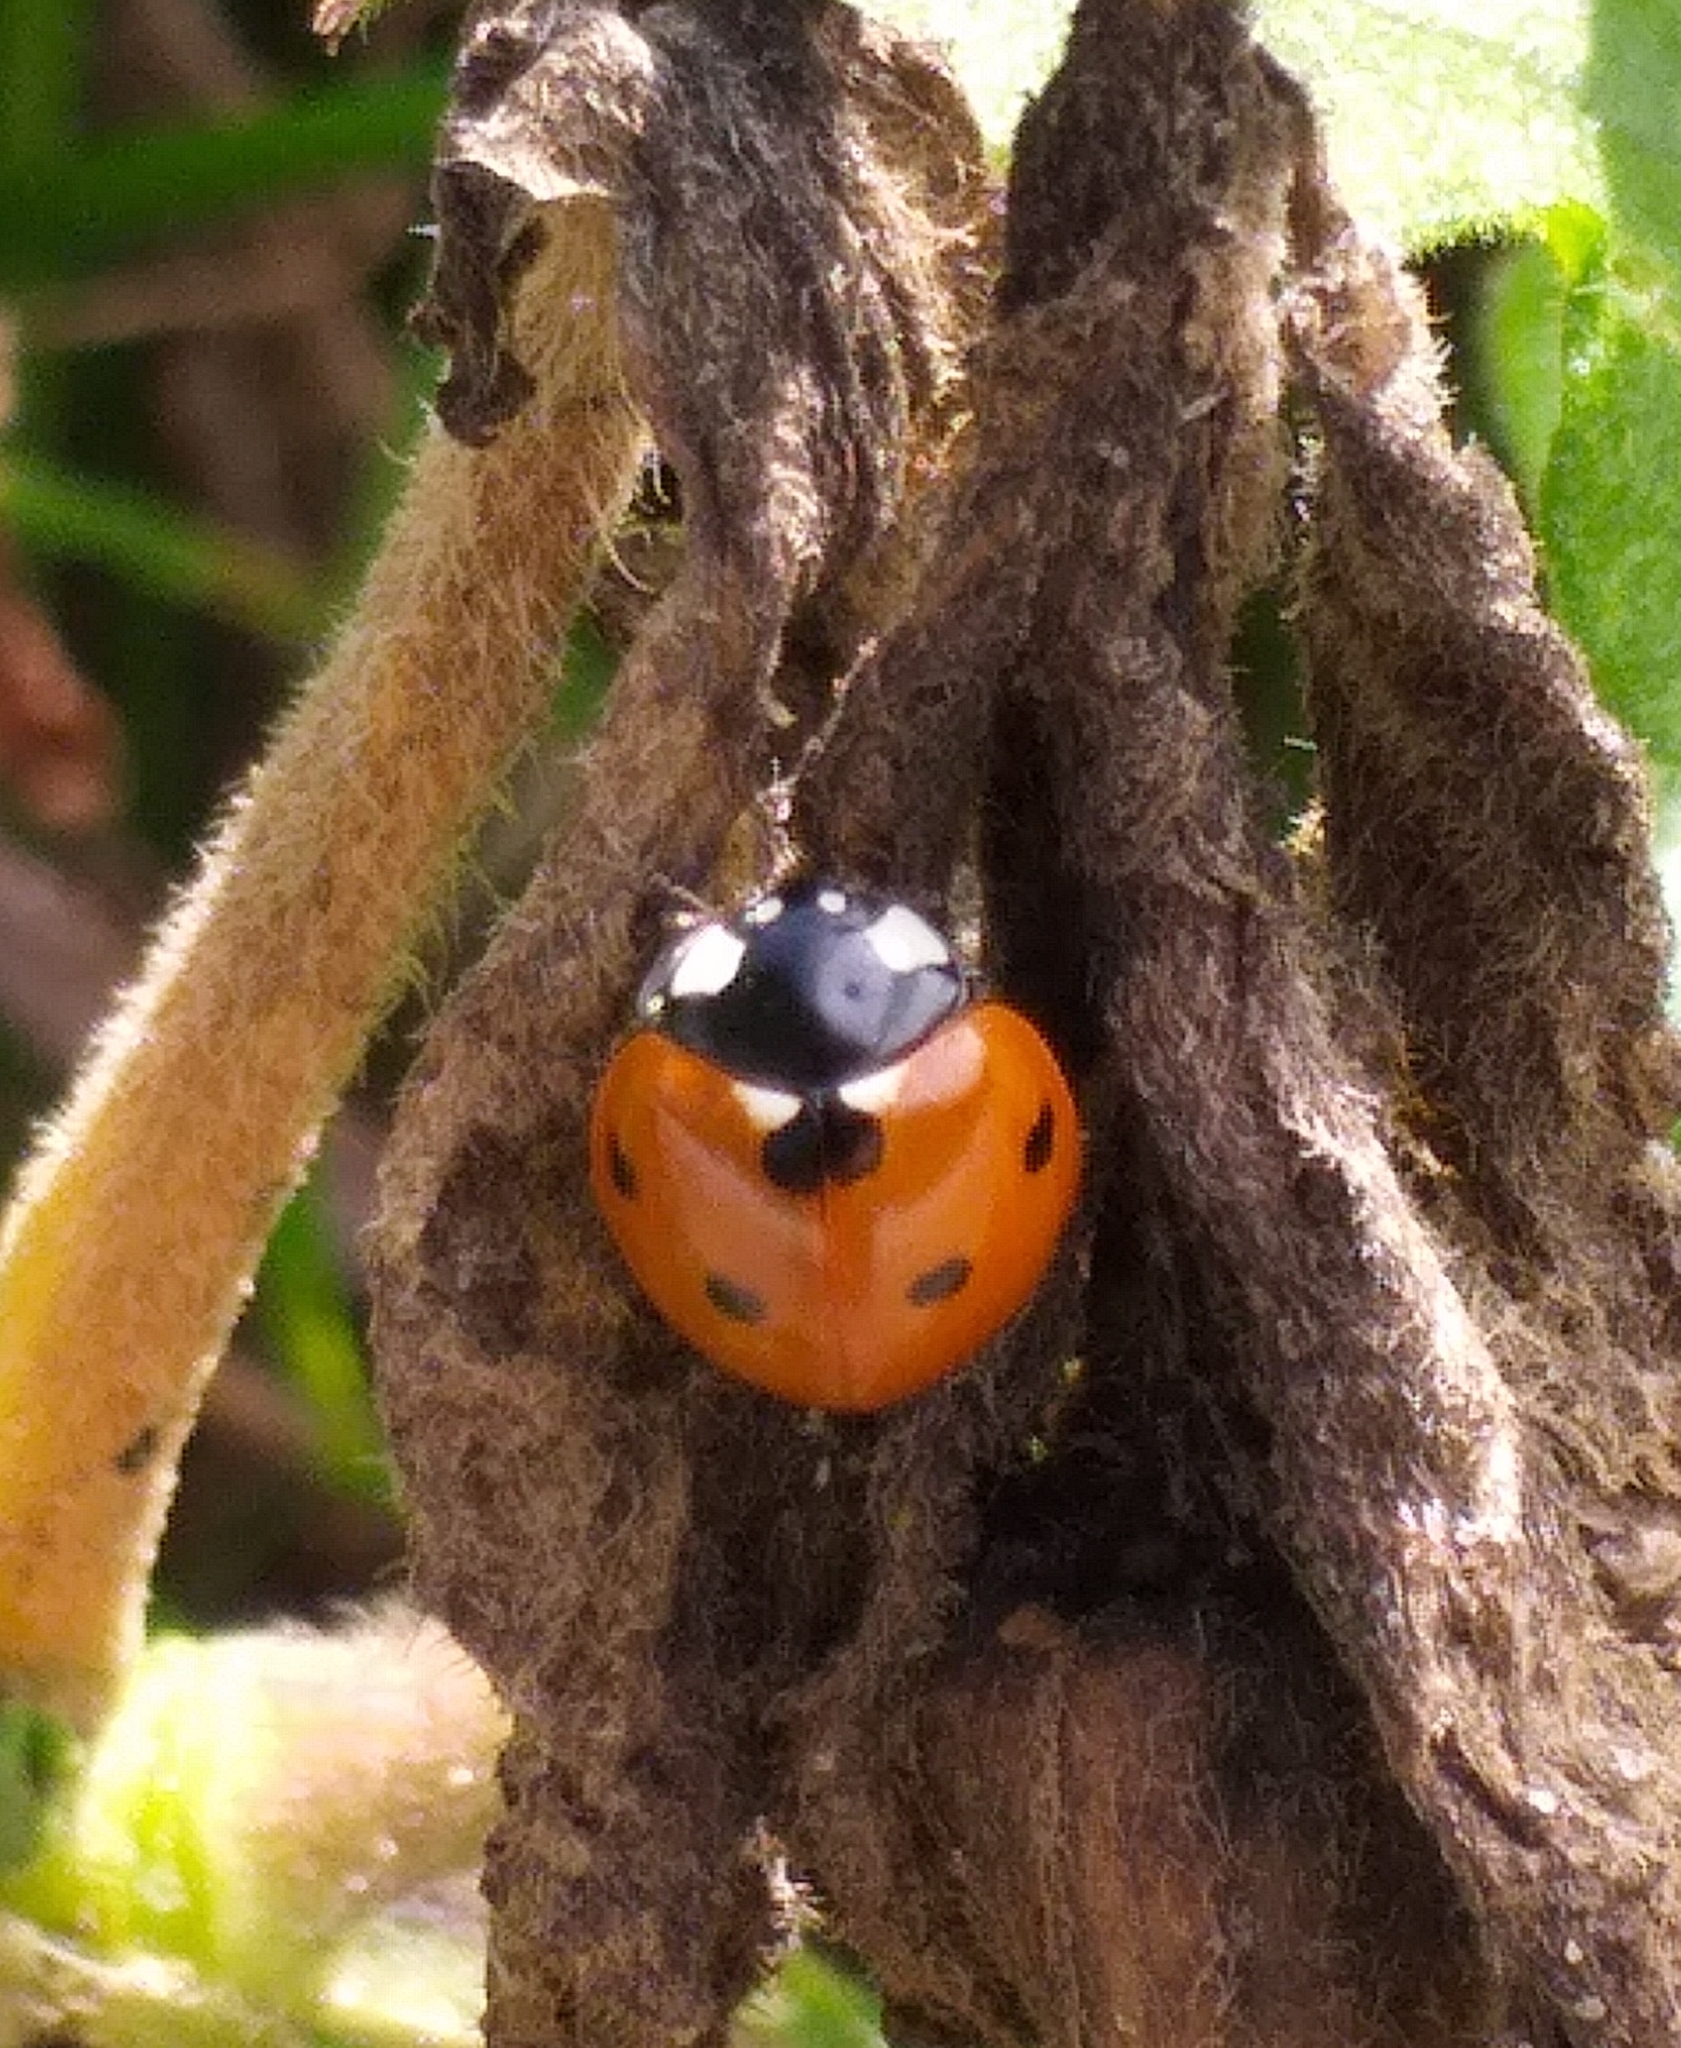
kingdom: Animalia
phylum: Arthropoda
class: Insecta
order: Coleoptera
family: Coccinellidae
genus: Coccinella
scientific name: Coccinella septempunctata
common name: Sevenspotted lady beetle
